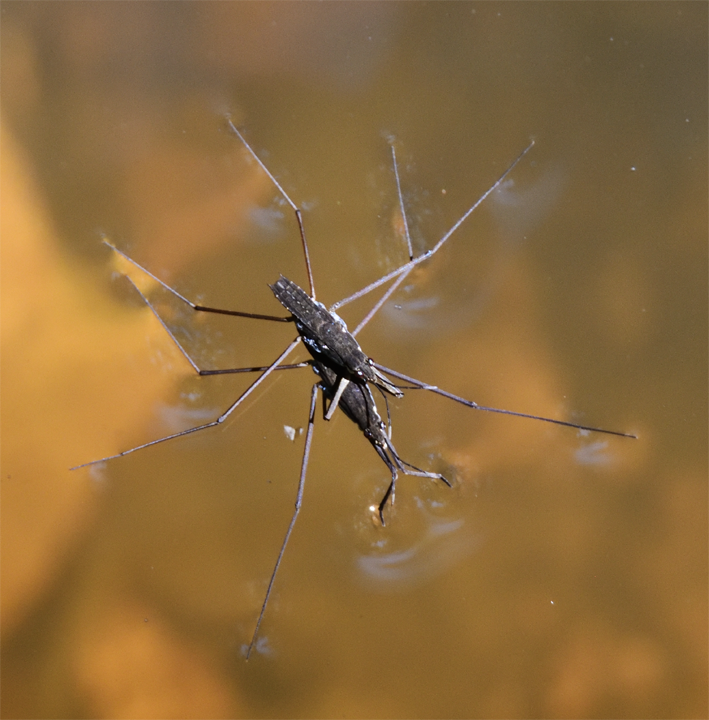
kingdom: Animalia
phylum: Arthropoda
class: Insecta
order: Hemiptera
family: Gerridae
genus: Aquarius
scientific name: Aquarius remigis
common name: Common water strider
